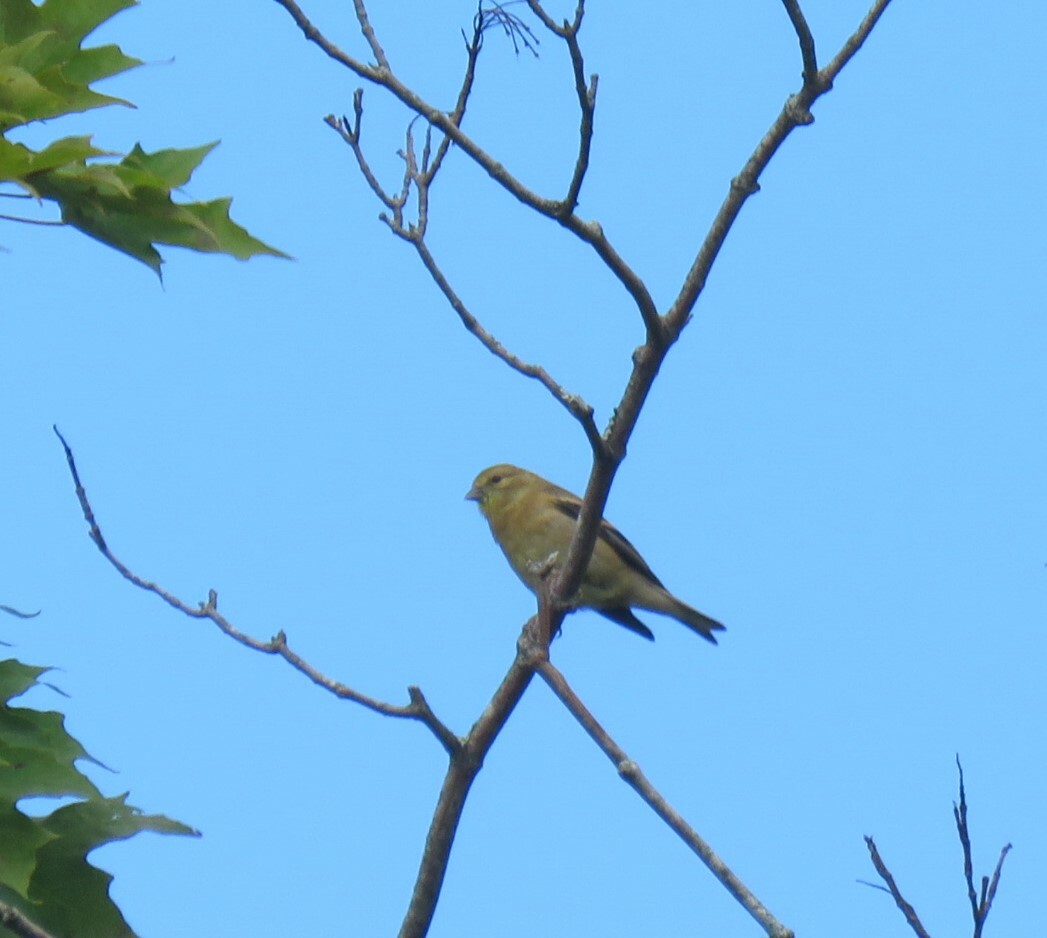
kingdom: Animalia
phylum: Chordata
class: Aves
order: Passeriformes
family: Fringillidae
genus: Spinus
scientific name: Spinus tristis
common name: American goldfinch
